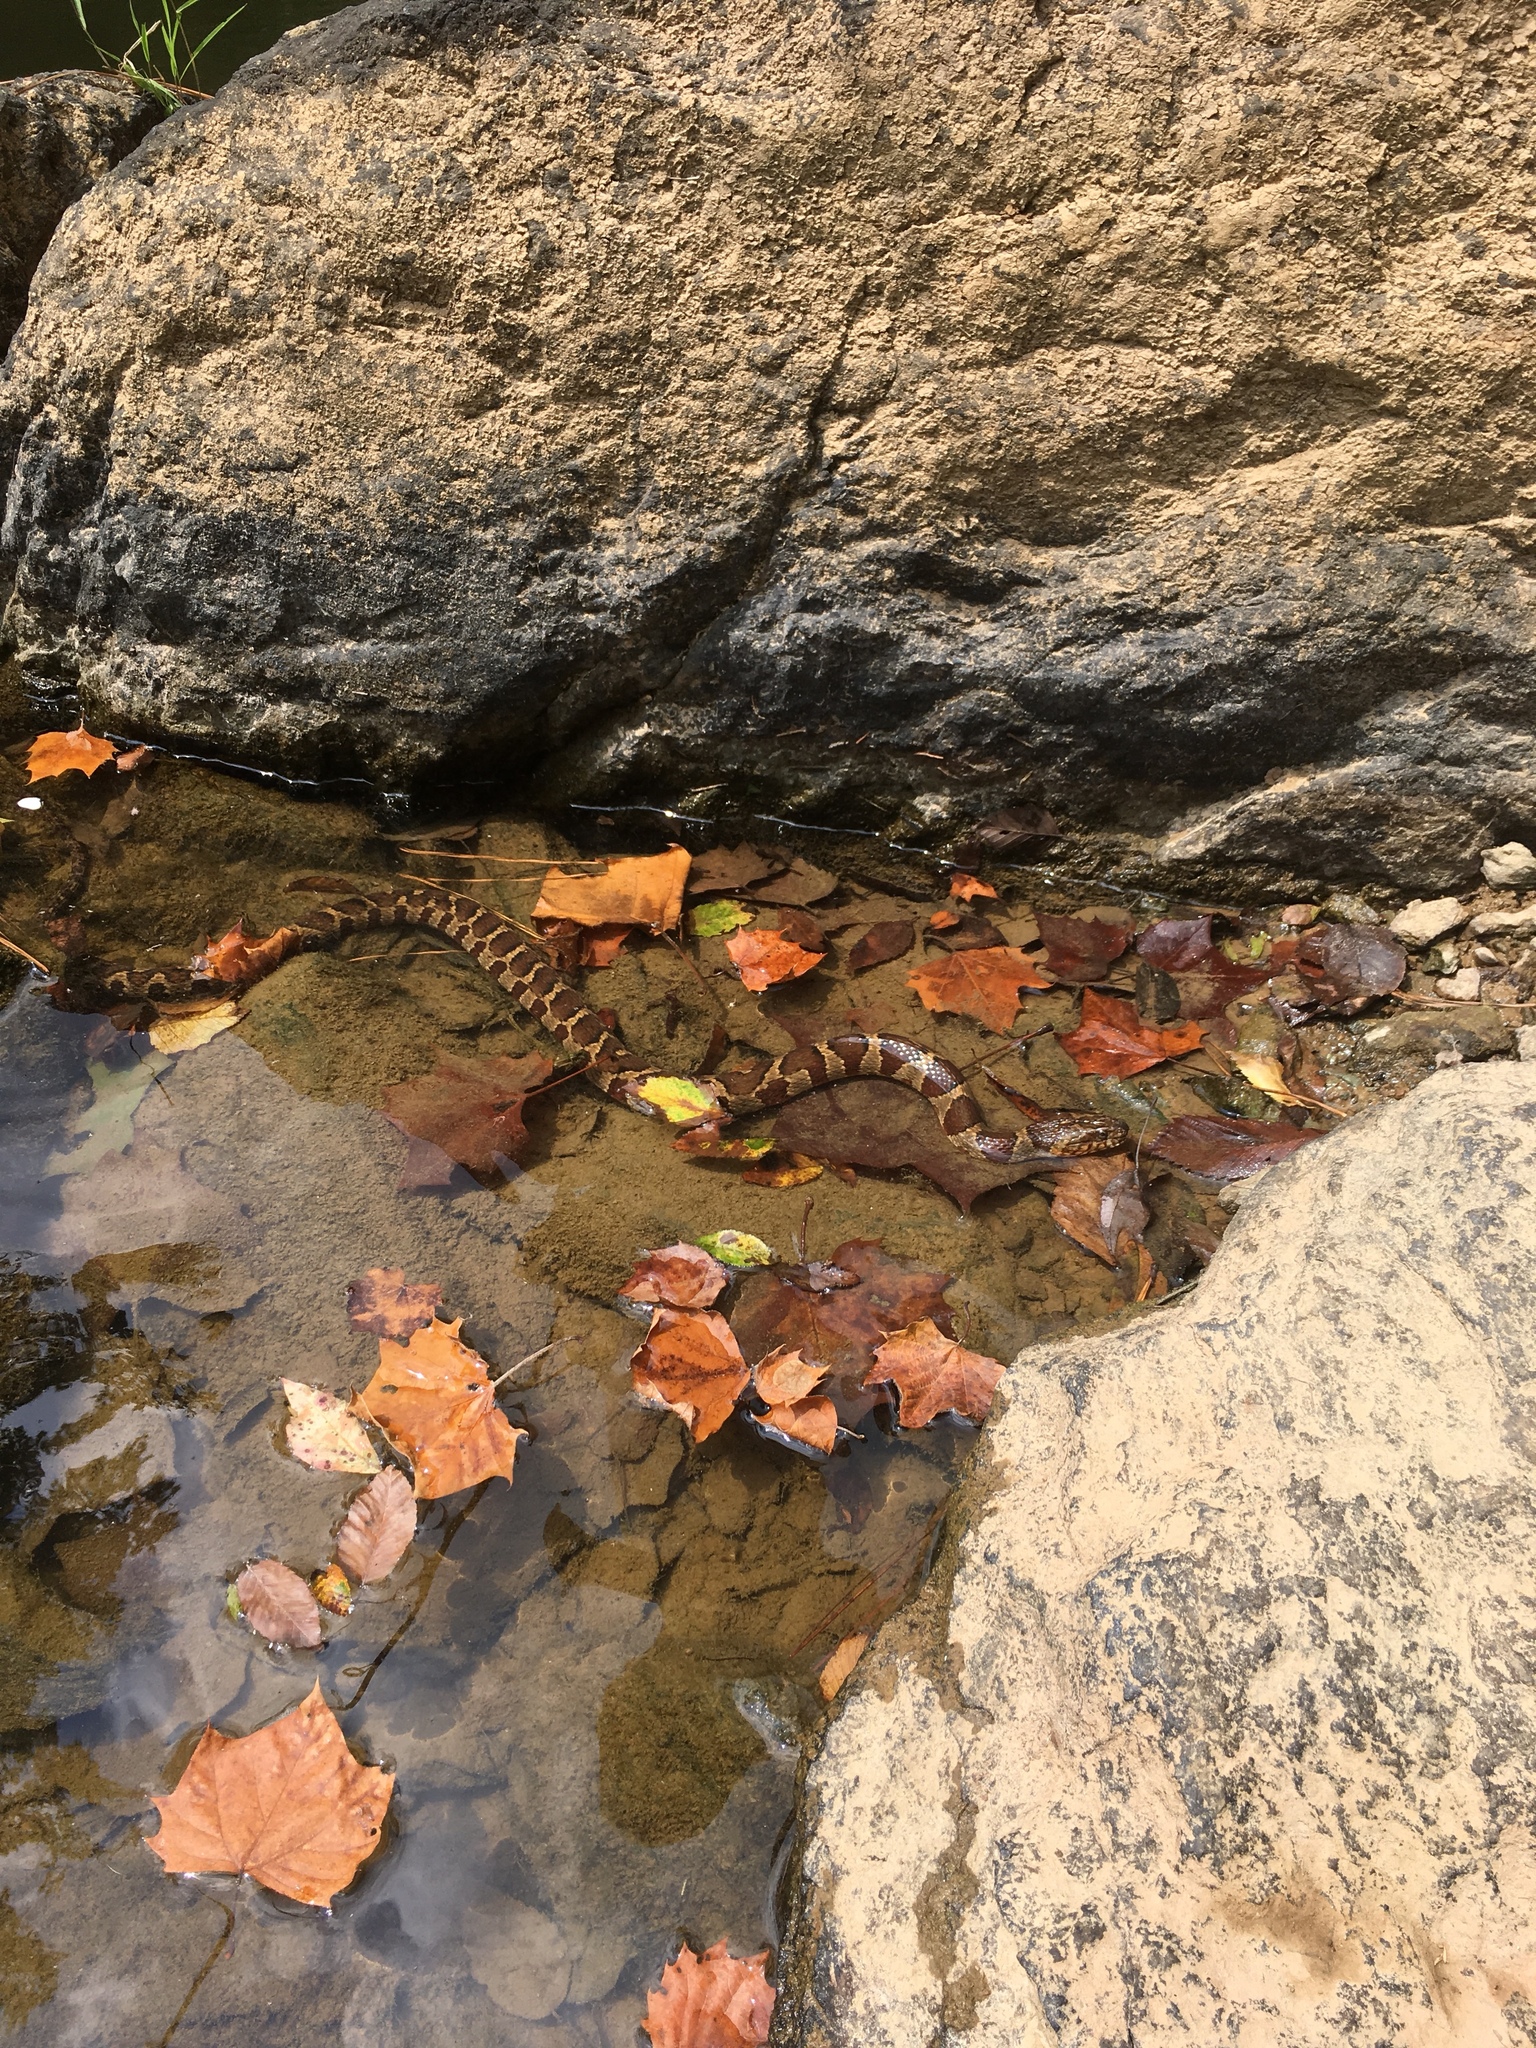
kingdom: Animalia
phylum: Chordata
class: Squamata
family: Colubridae
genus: Nerodia
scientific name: Nerodia sipedon
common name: Northern water snake
